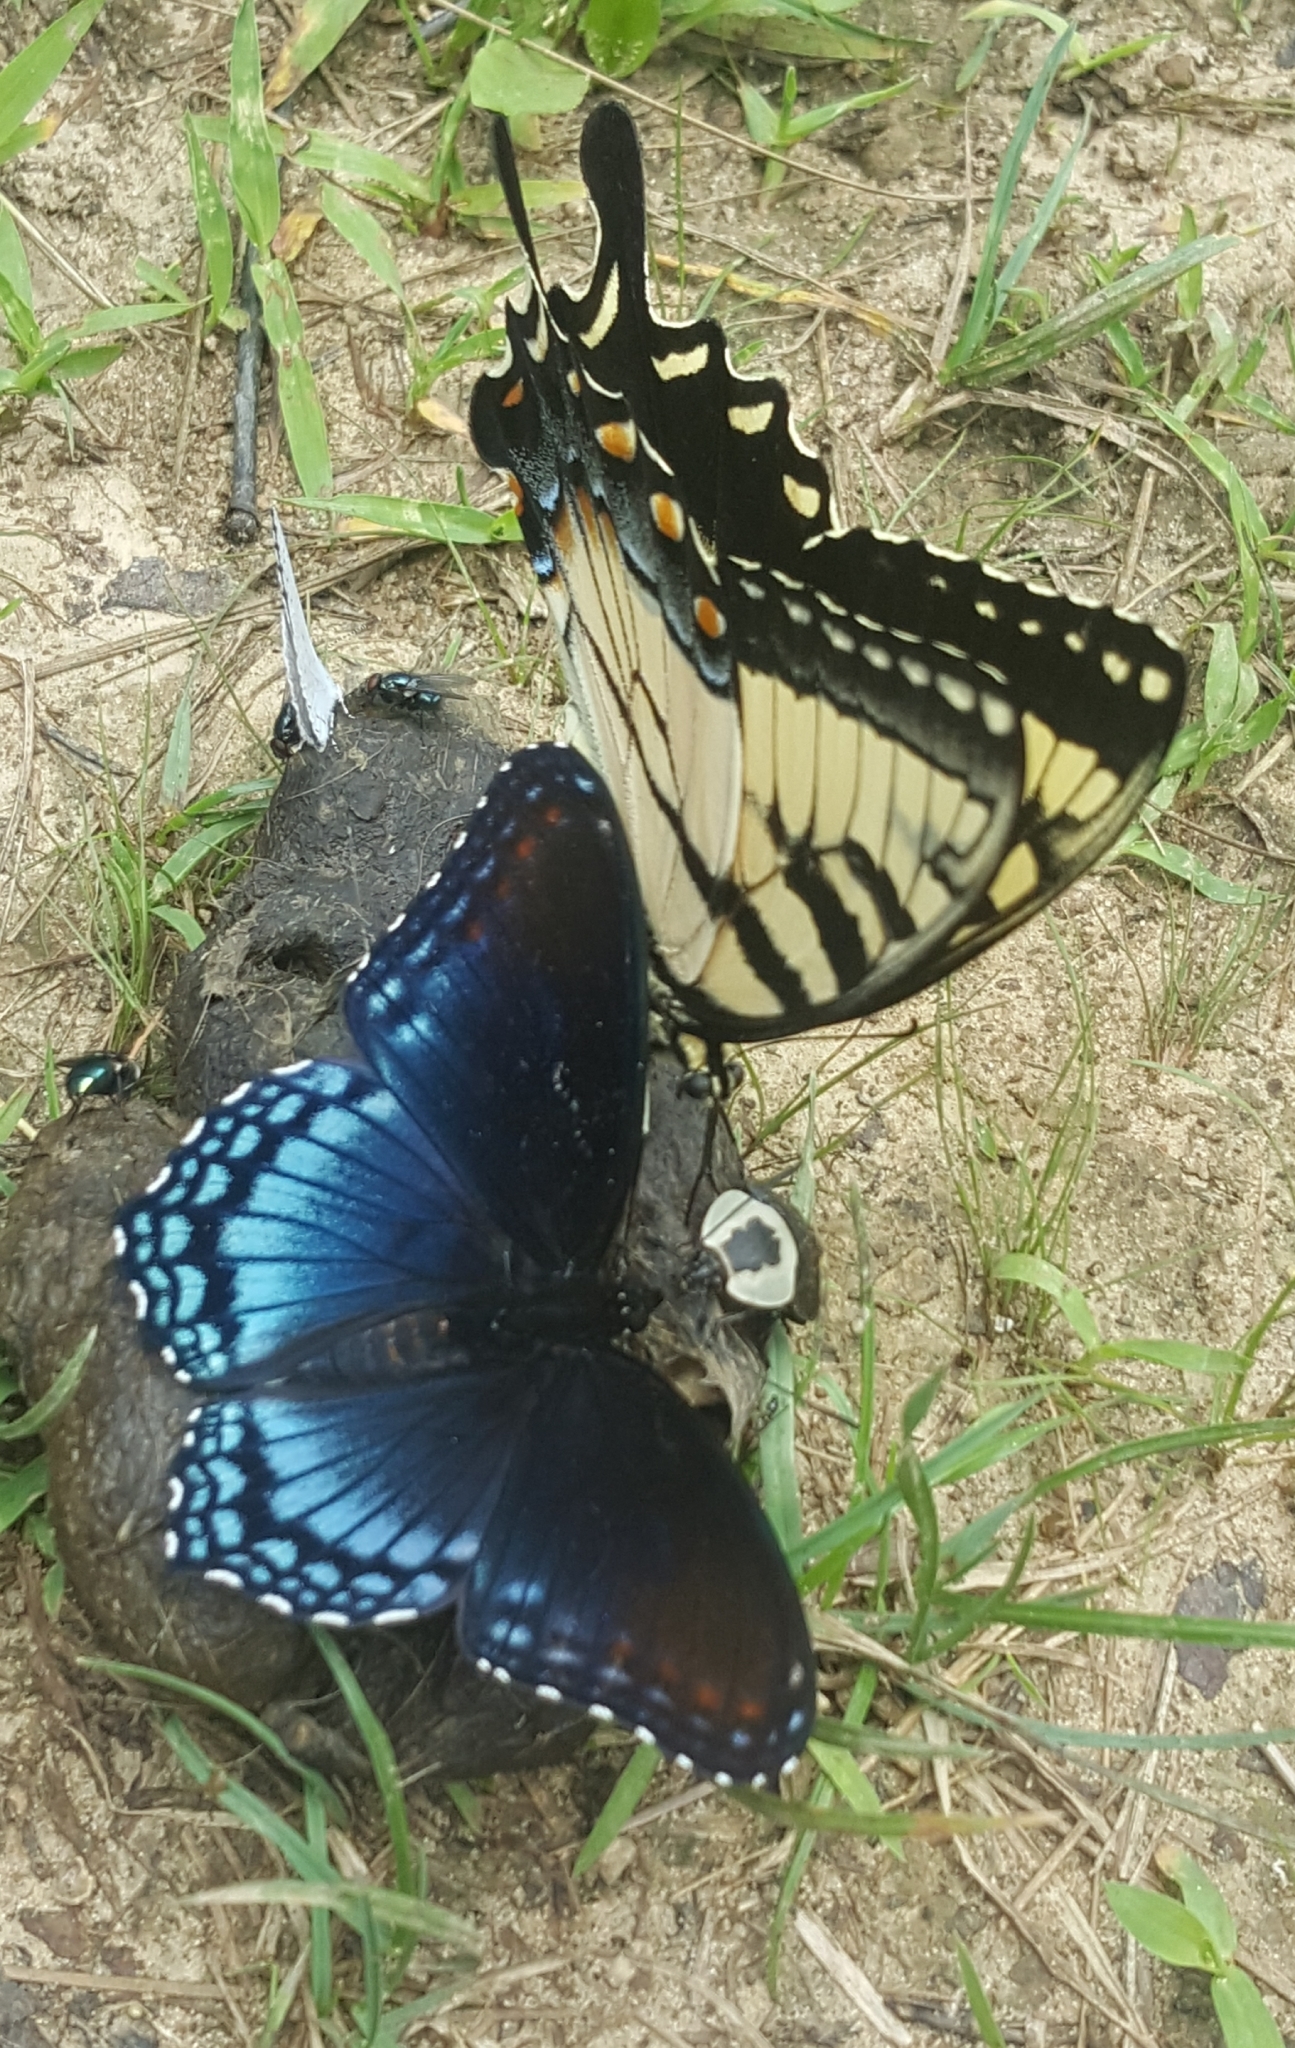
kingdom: Animalia
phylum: Arthropoda
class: Insecta
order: Lepidoptera
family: Nymphalidae
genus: Limenitis
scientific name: Limenitis arthemis
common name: Red-spotted admiral
